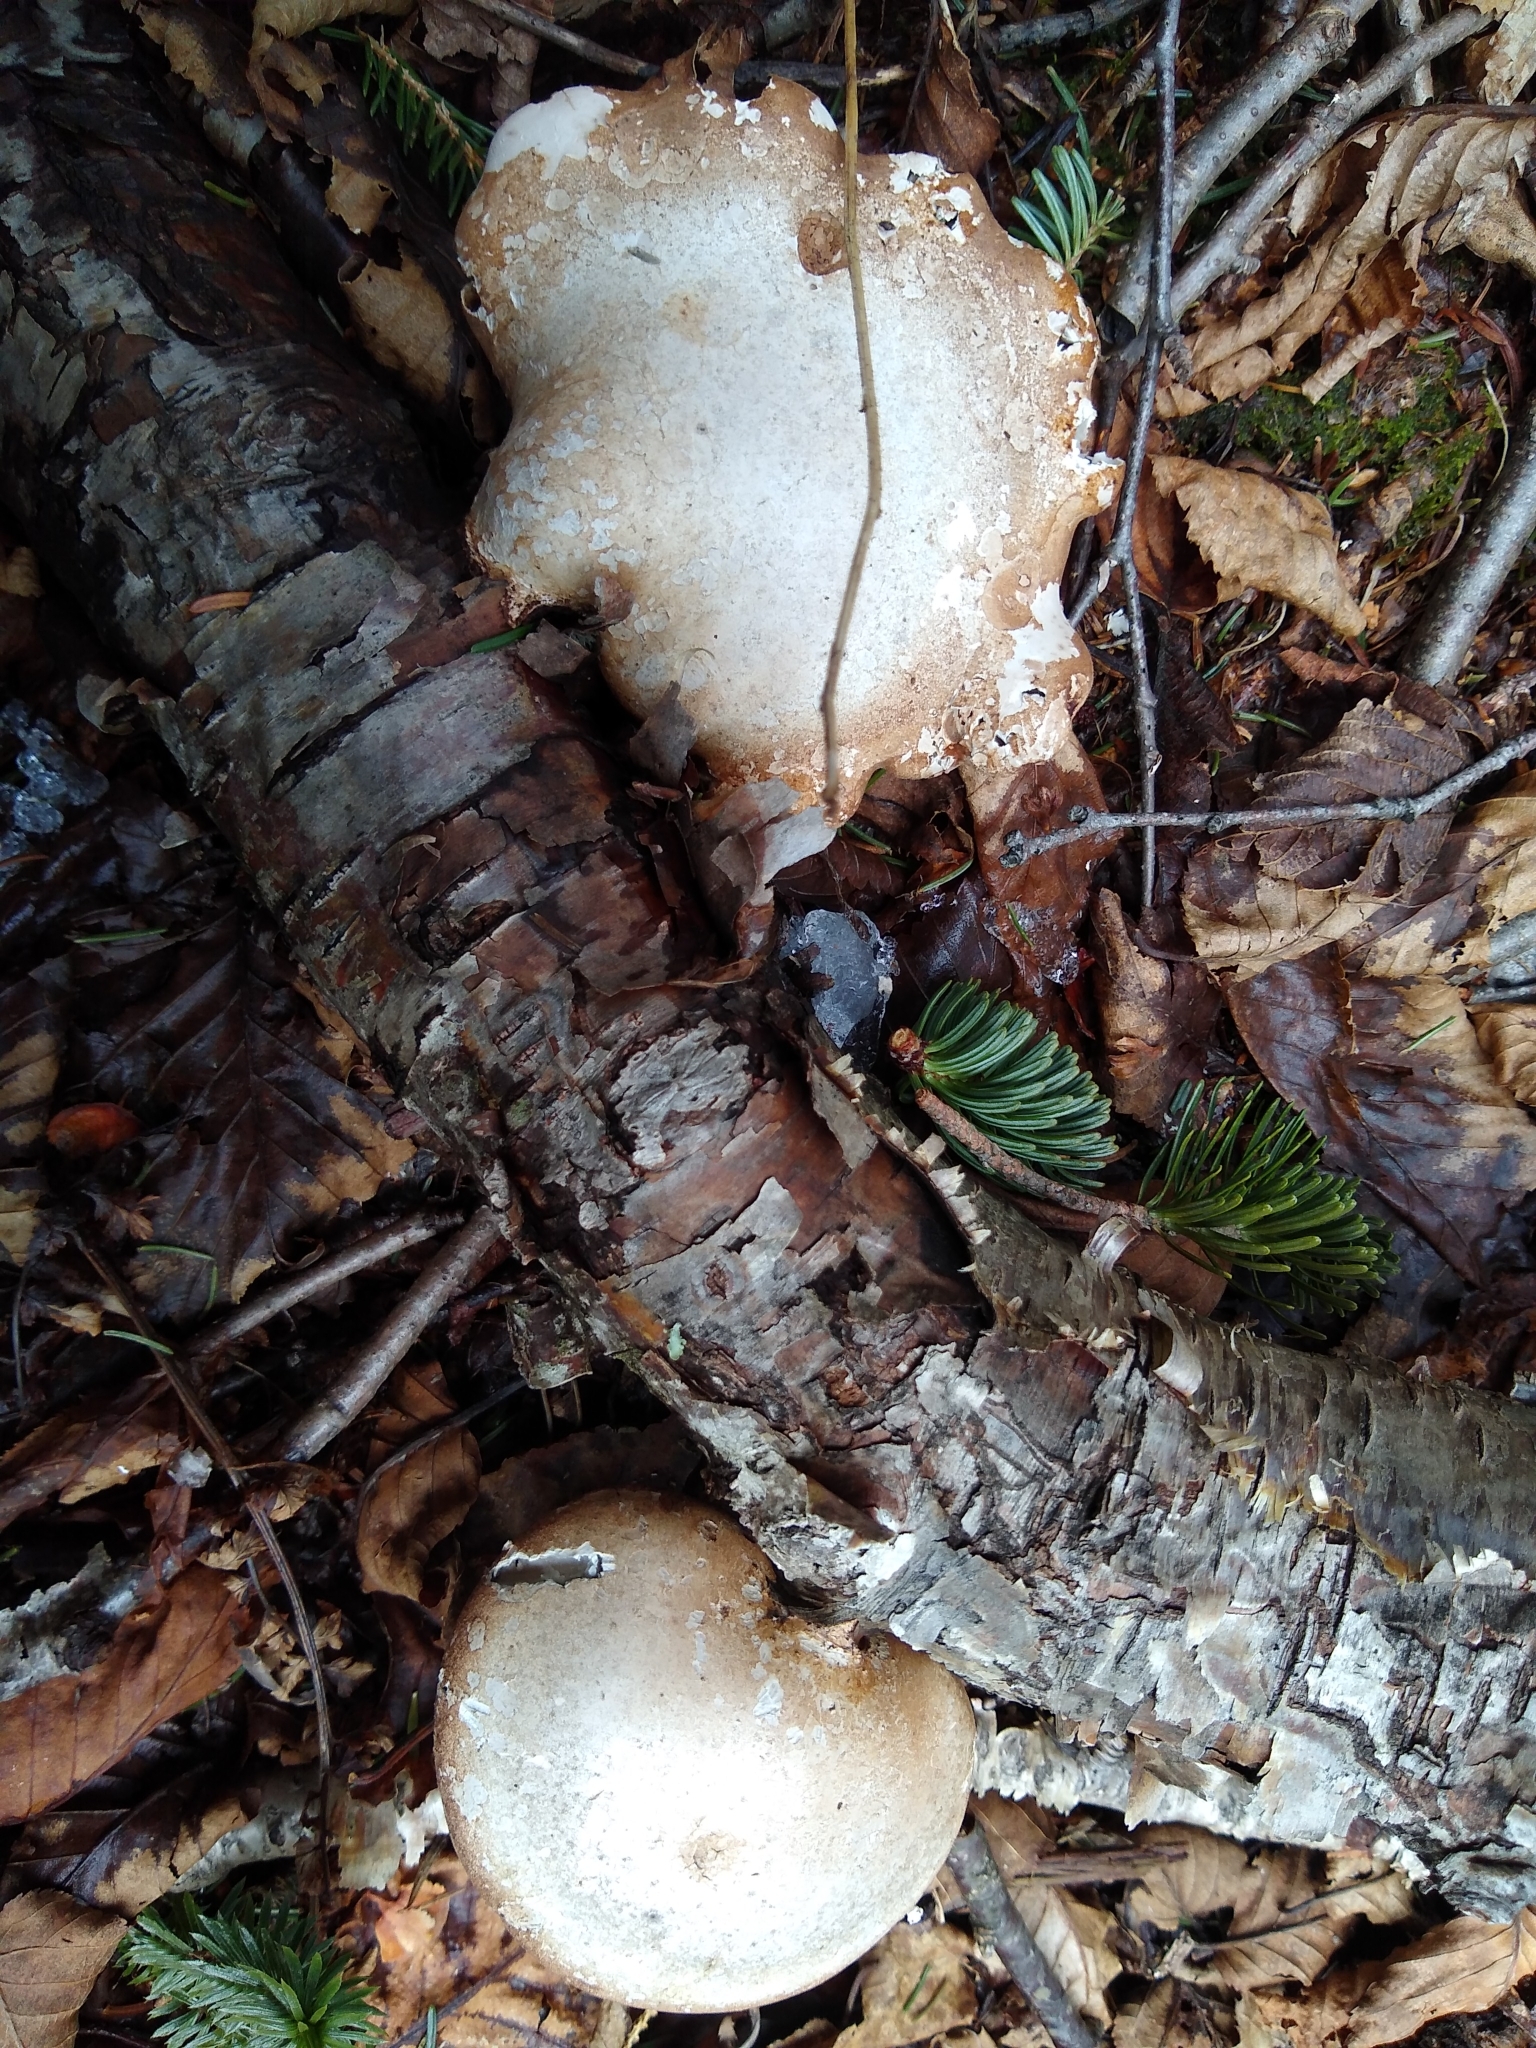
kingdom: Fungi
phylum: Basidiomycota
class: Agaricomycetes
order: Polyporales
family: Fomitopsidaceae
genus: Fomitopsis
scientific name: Fomitopsis betulina
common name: Birch polypore
